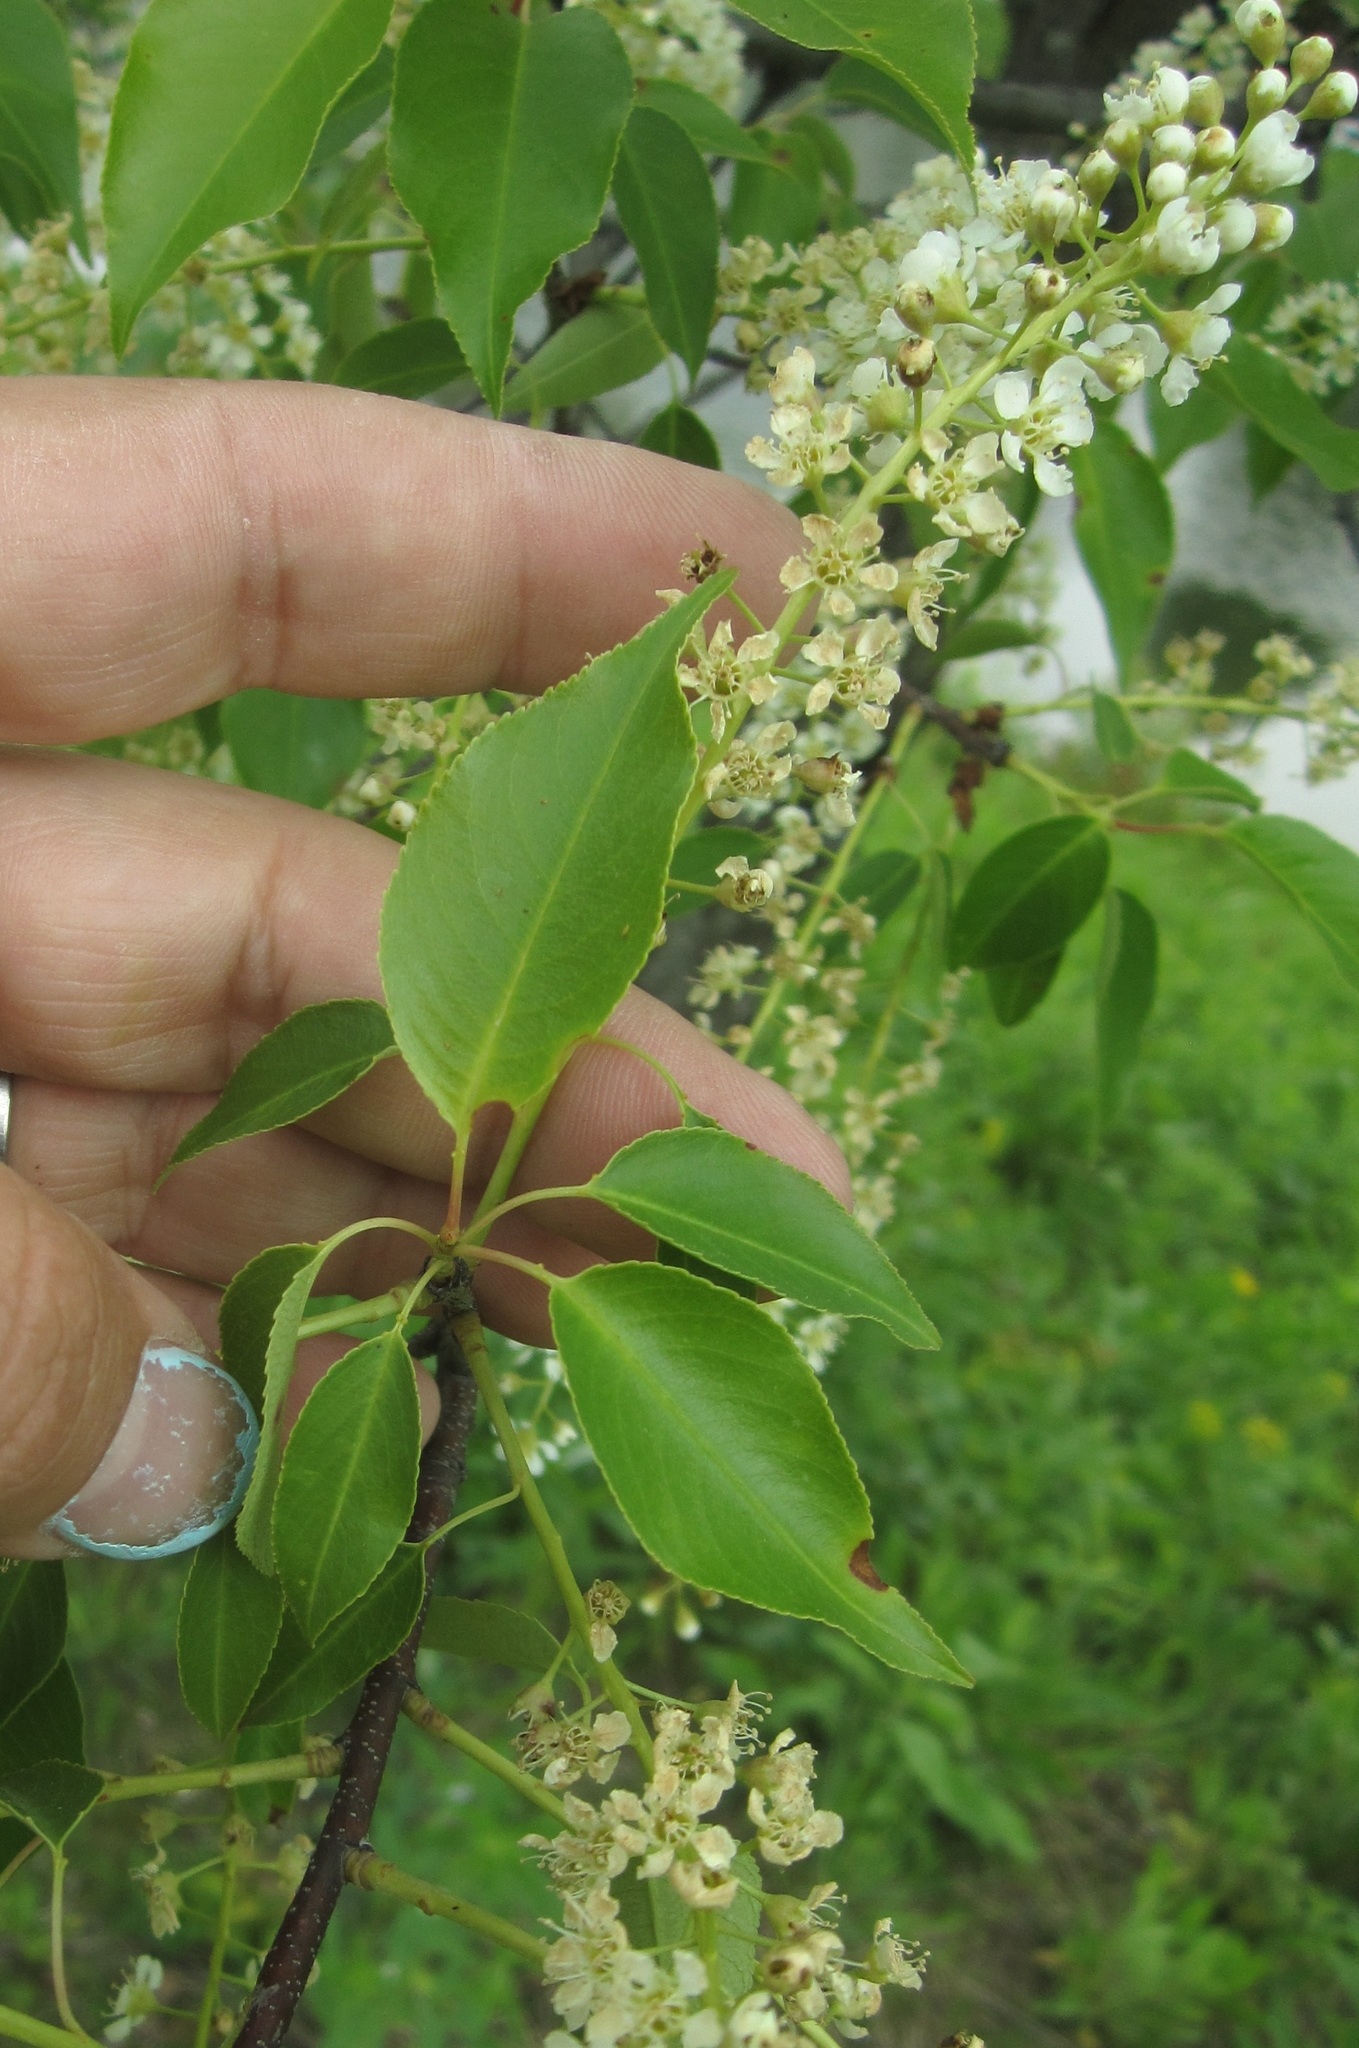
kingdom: Plantae
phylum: Tracheophyta
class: Magnoliopsida
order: Rosales
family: Rosaceae
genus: Prunus
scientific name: Prunus virginiana
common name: Chokecherry
